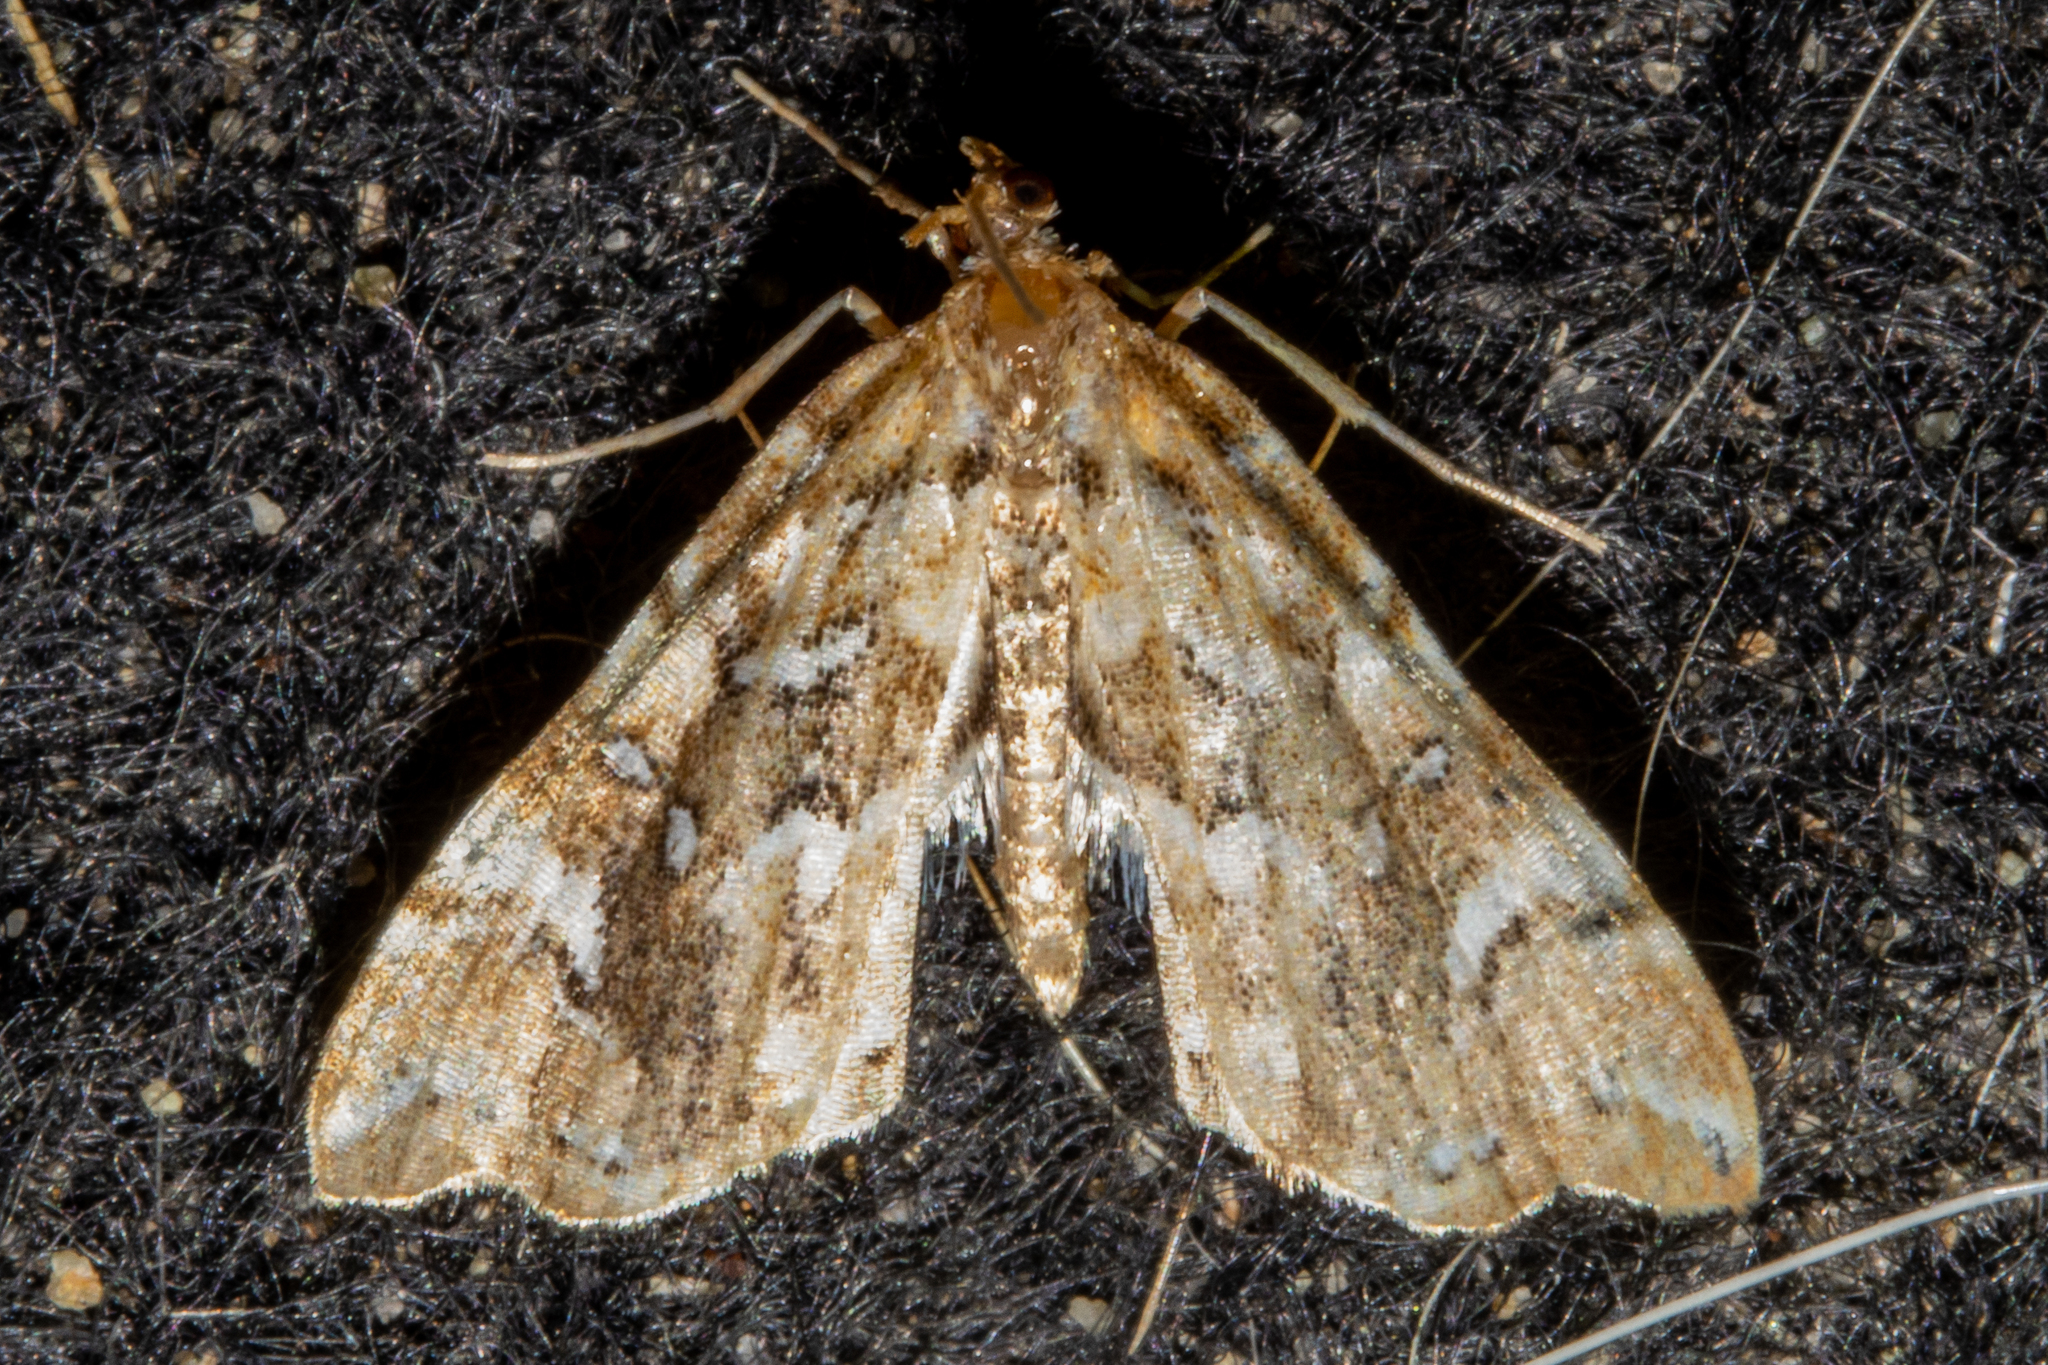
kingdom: Animalia
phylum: Arthropoda
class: Insecta
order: Lepidoptera
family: Pyralidae
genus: Musotima
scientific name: Musotima nitidalis
